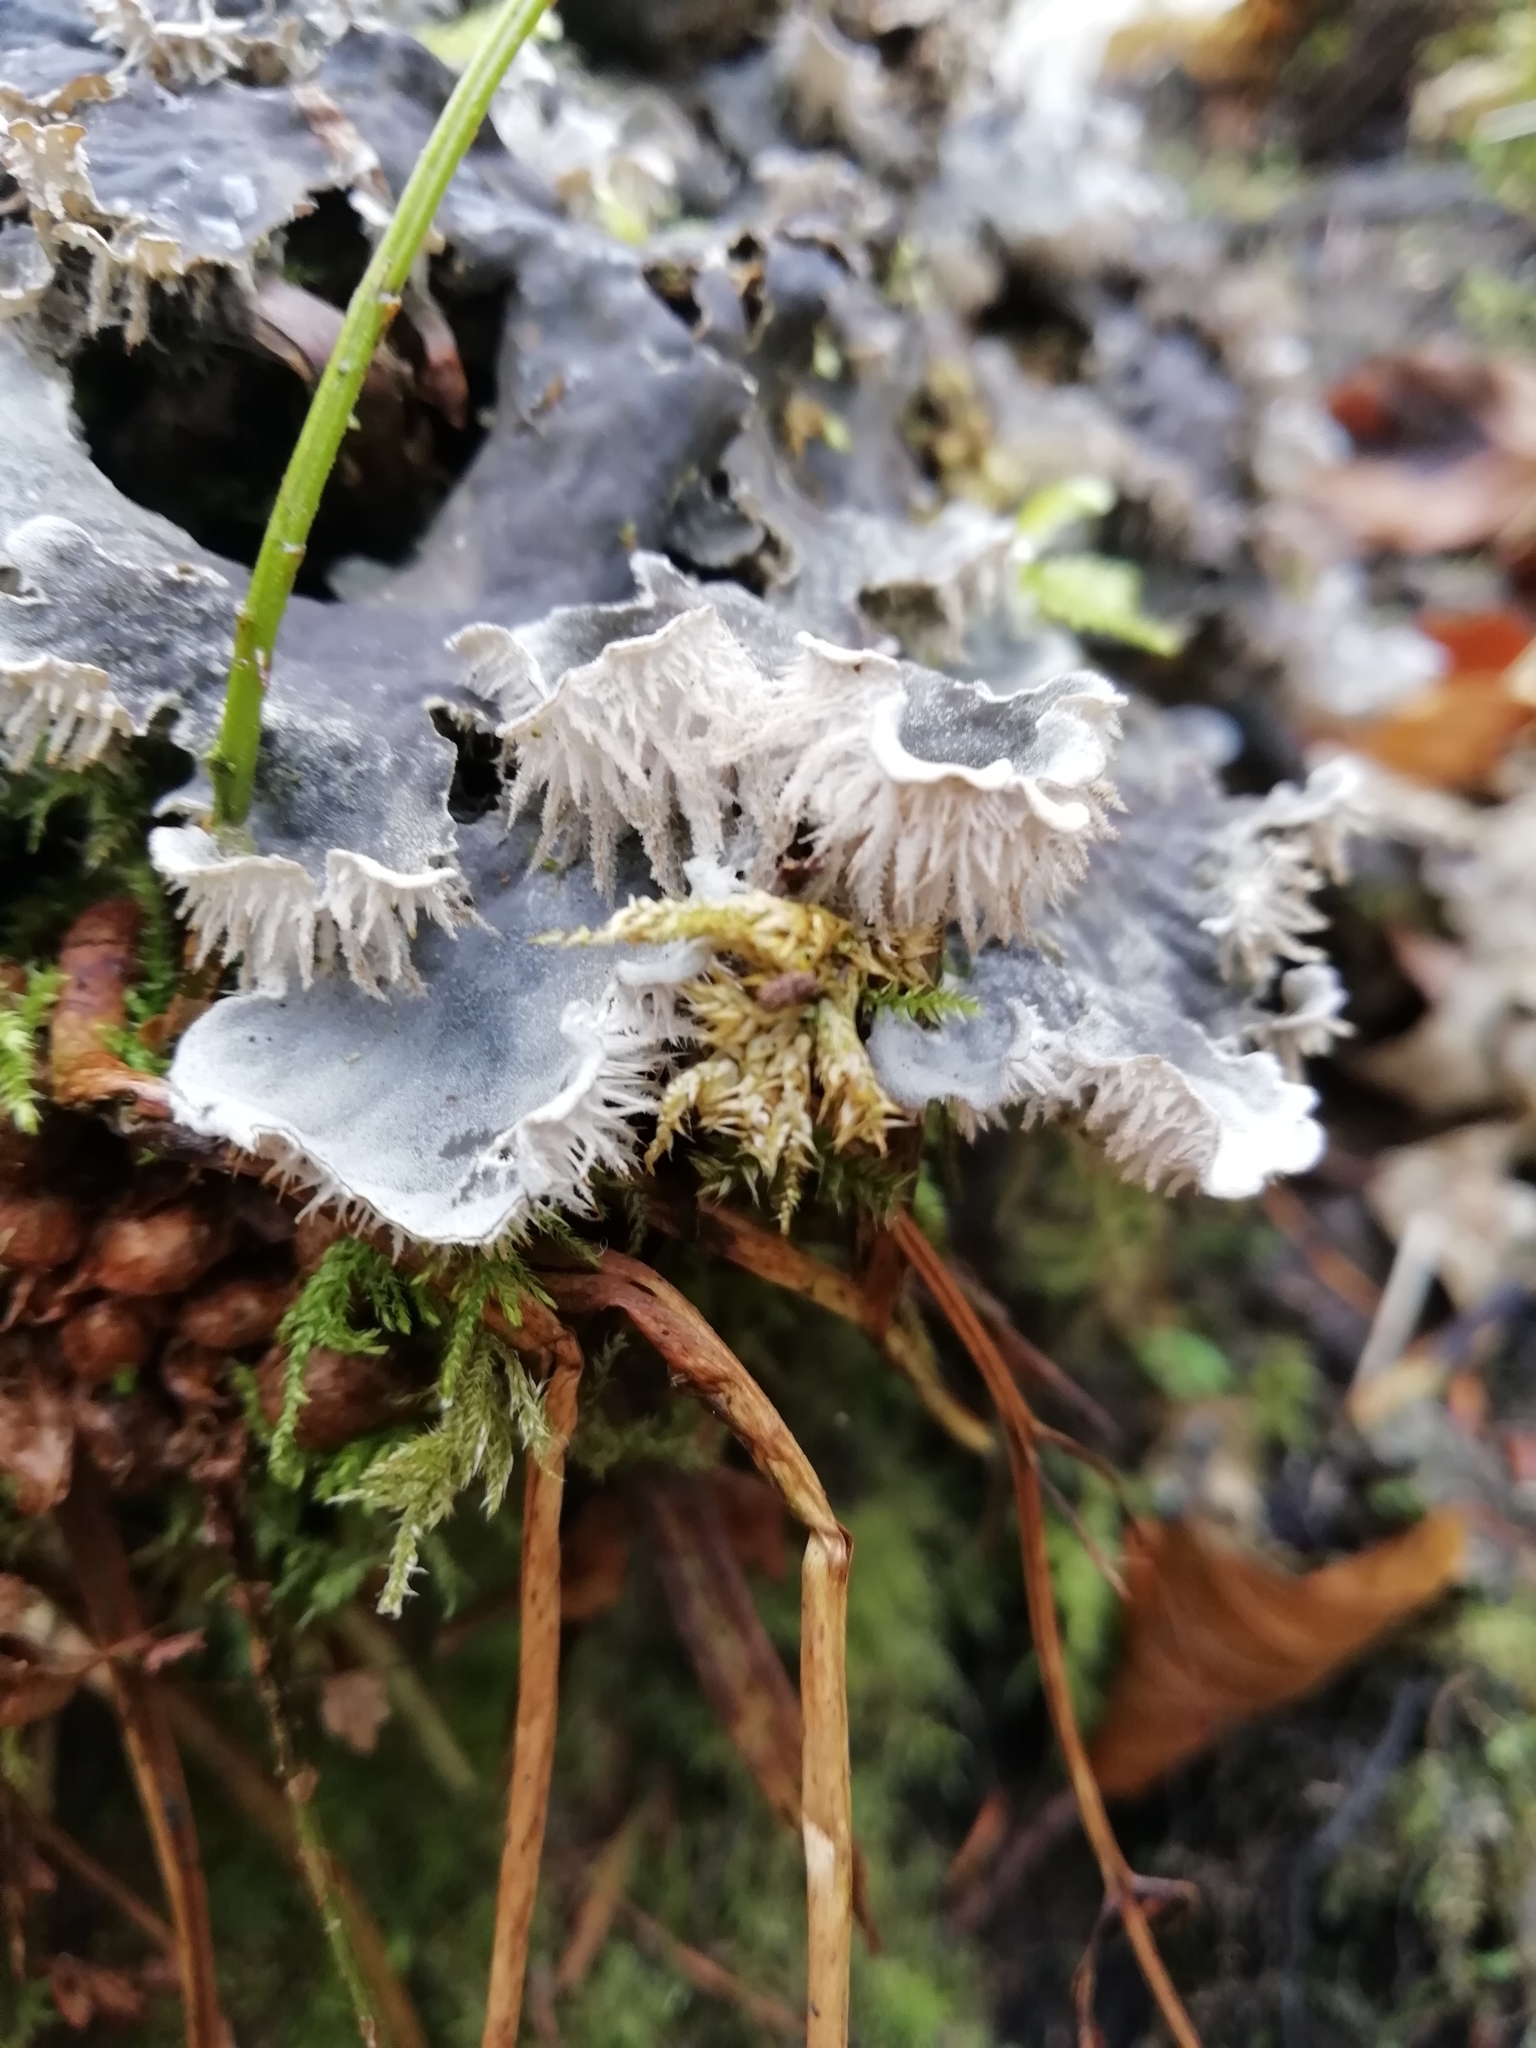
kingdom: Fungi
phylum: Ascomycota
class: Lecanoromycetes
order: Peltigerales
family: Peltigeraceae
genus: Peltigera
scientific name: Peltigera canina
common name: Dog pelt lichen
